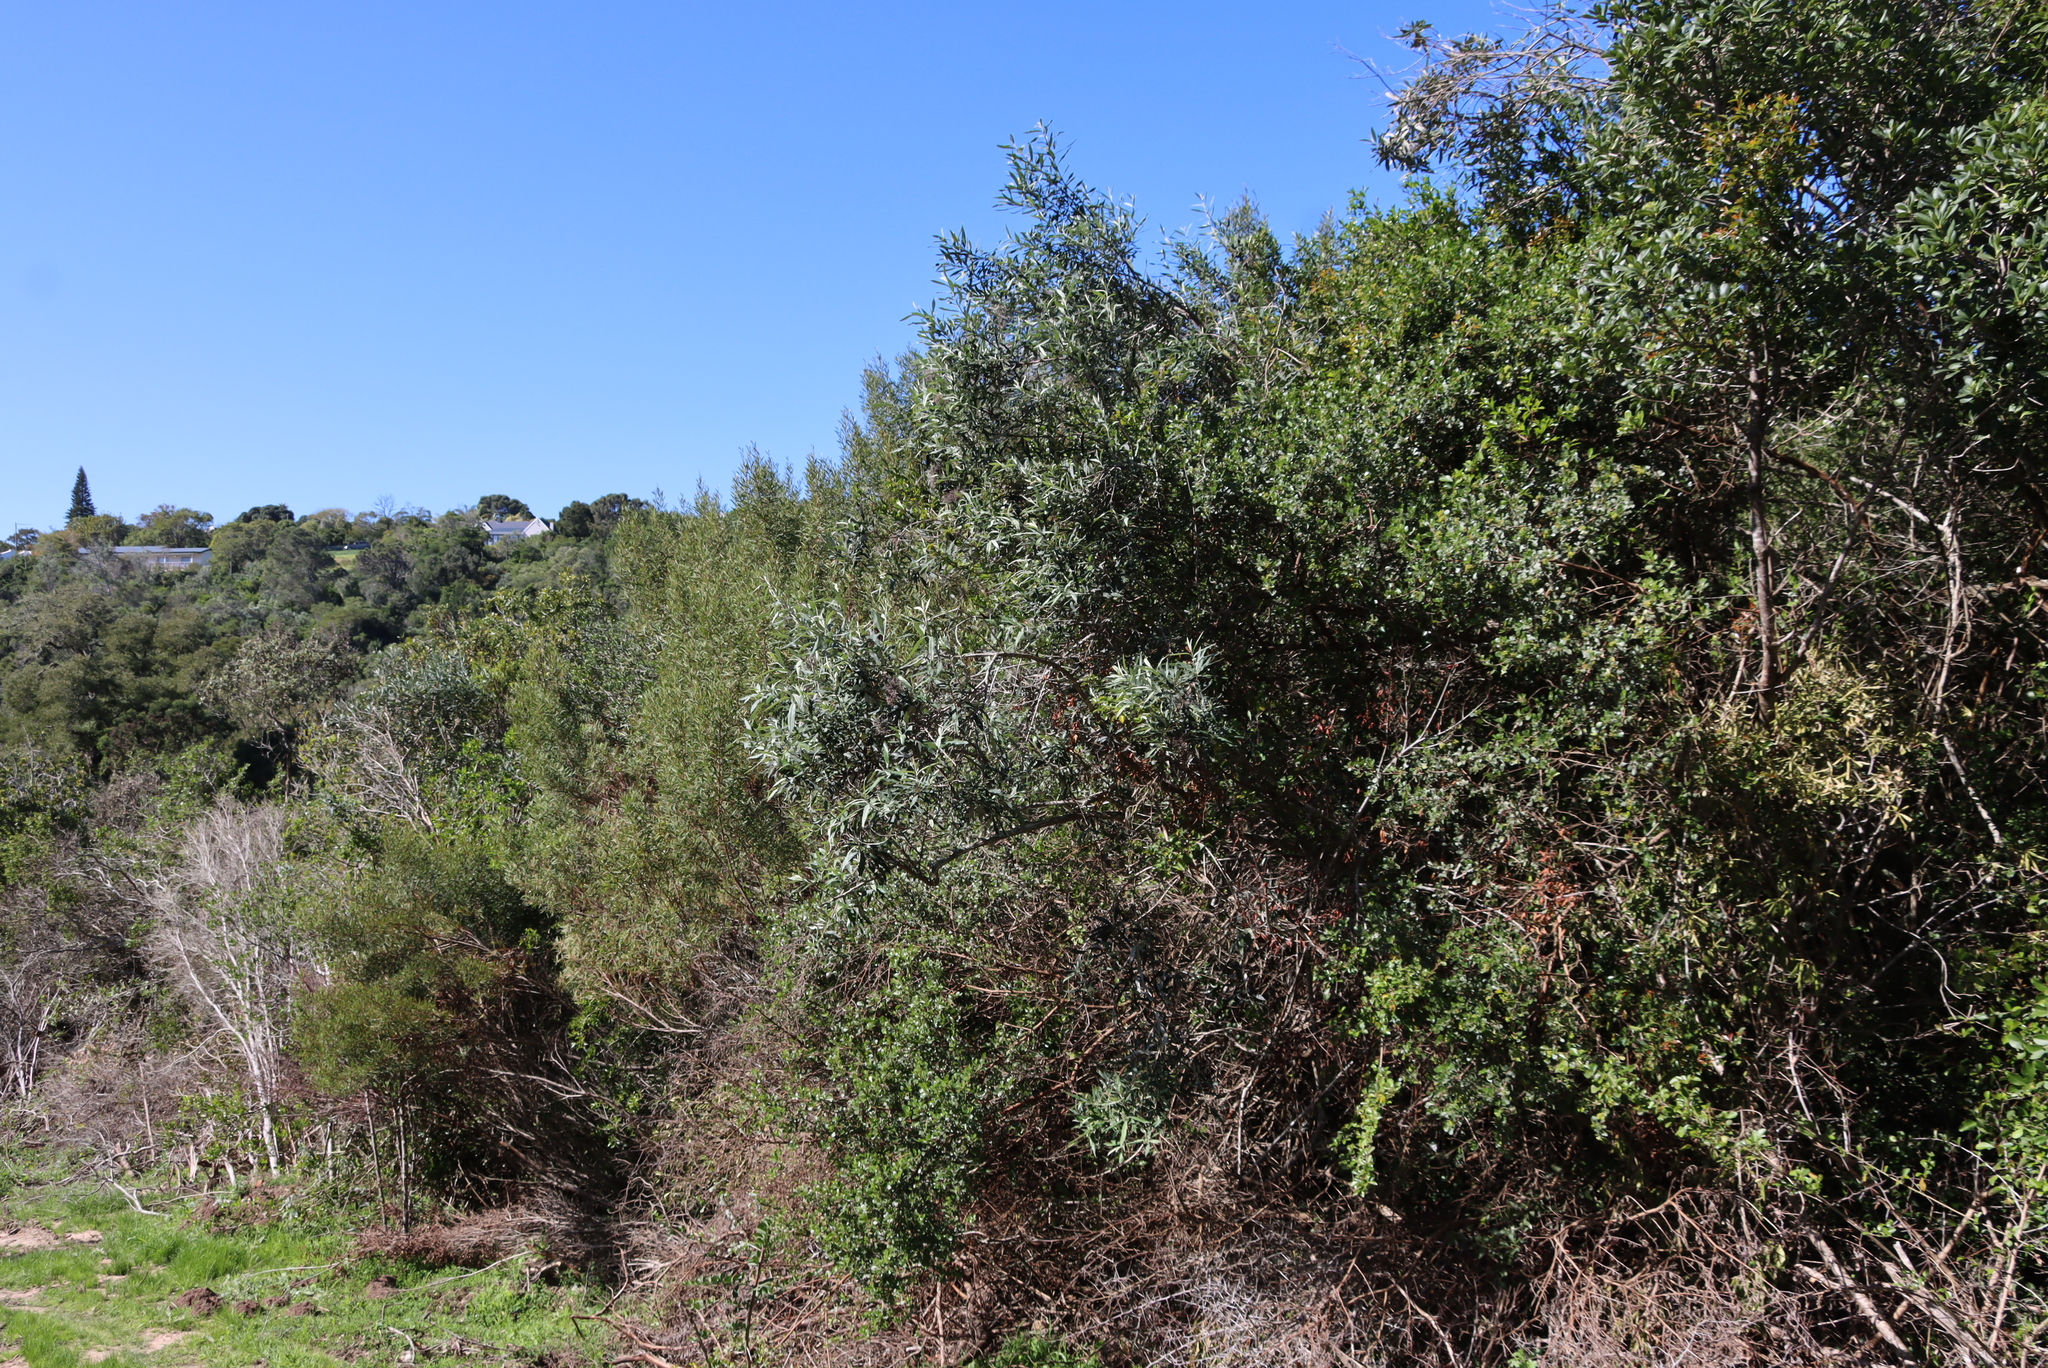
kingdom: Plantae
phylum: Tracheophyta
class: Magnoliopsida
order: Lamiales
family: Scrophulariaceae
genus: Buddleja
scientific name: Buddleja saligna
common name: False olive
